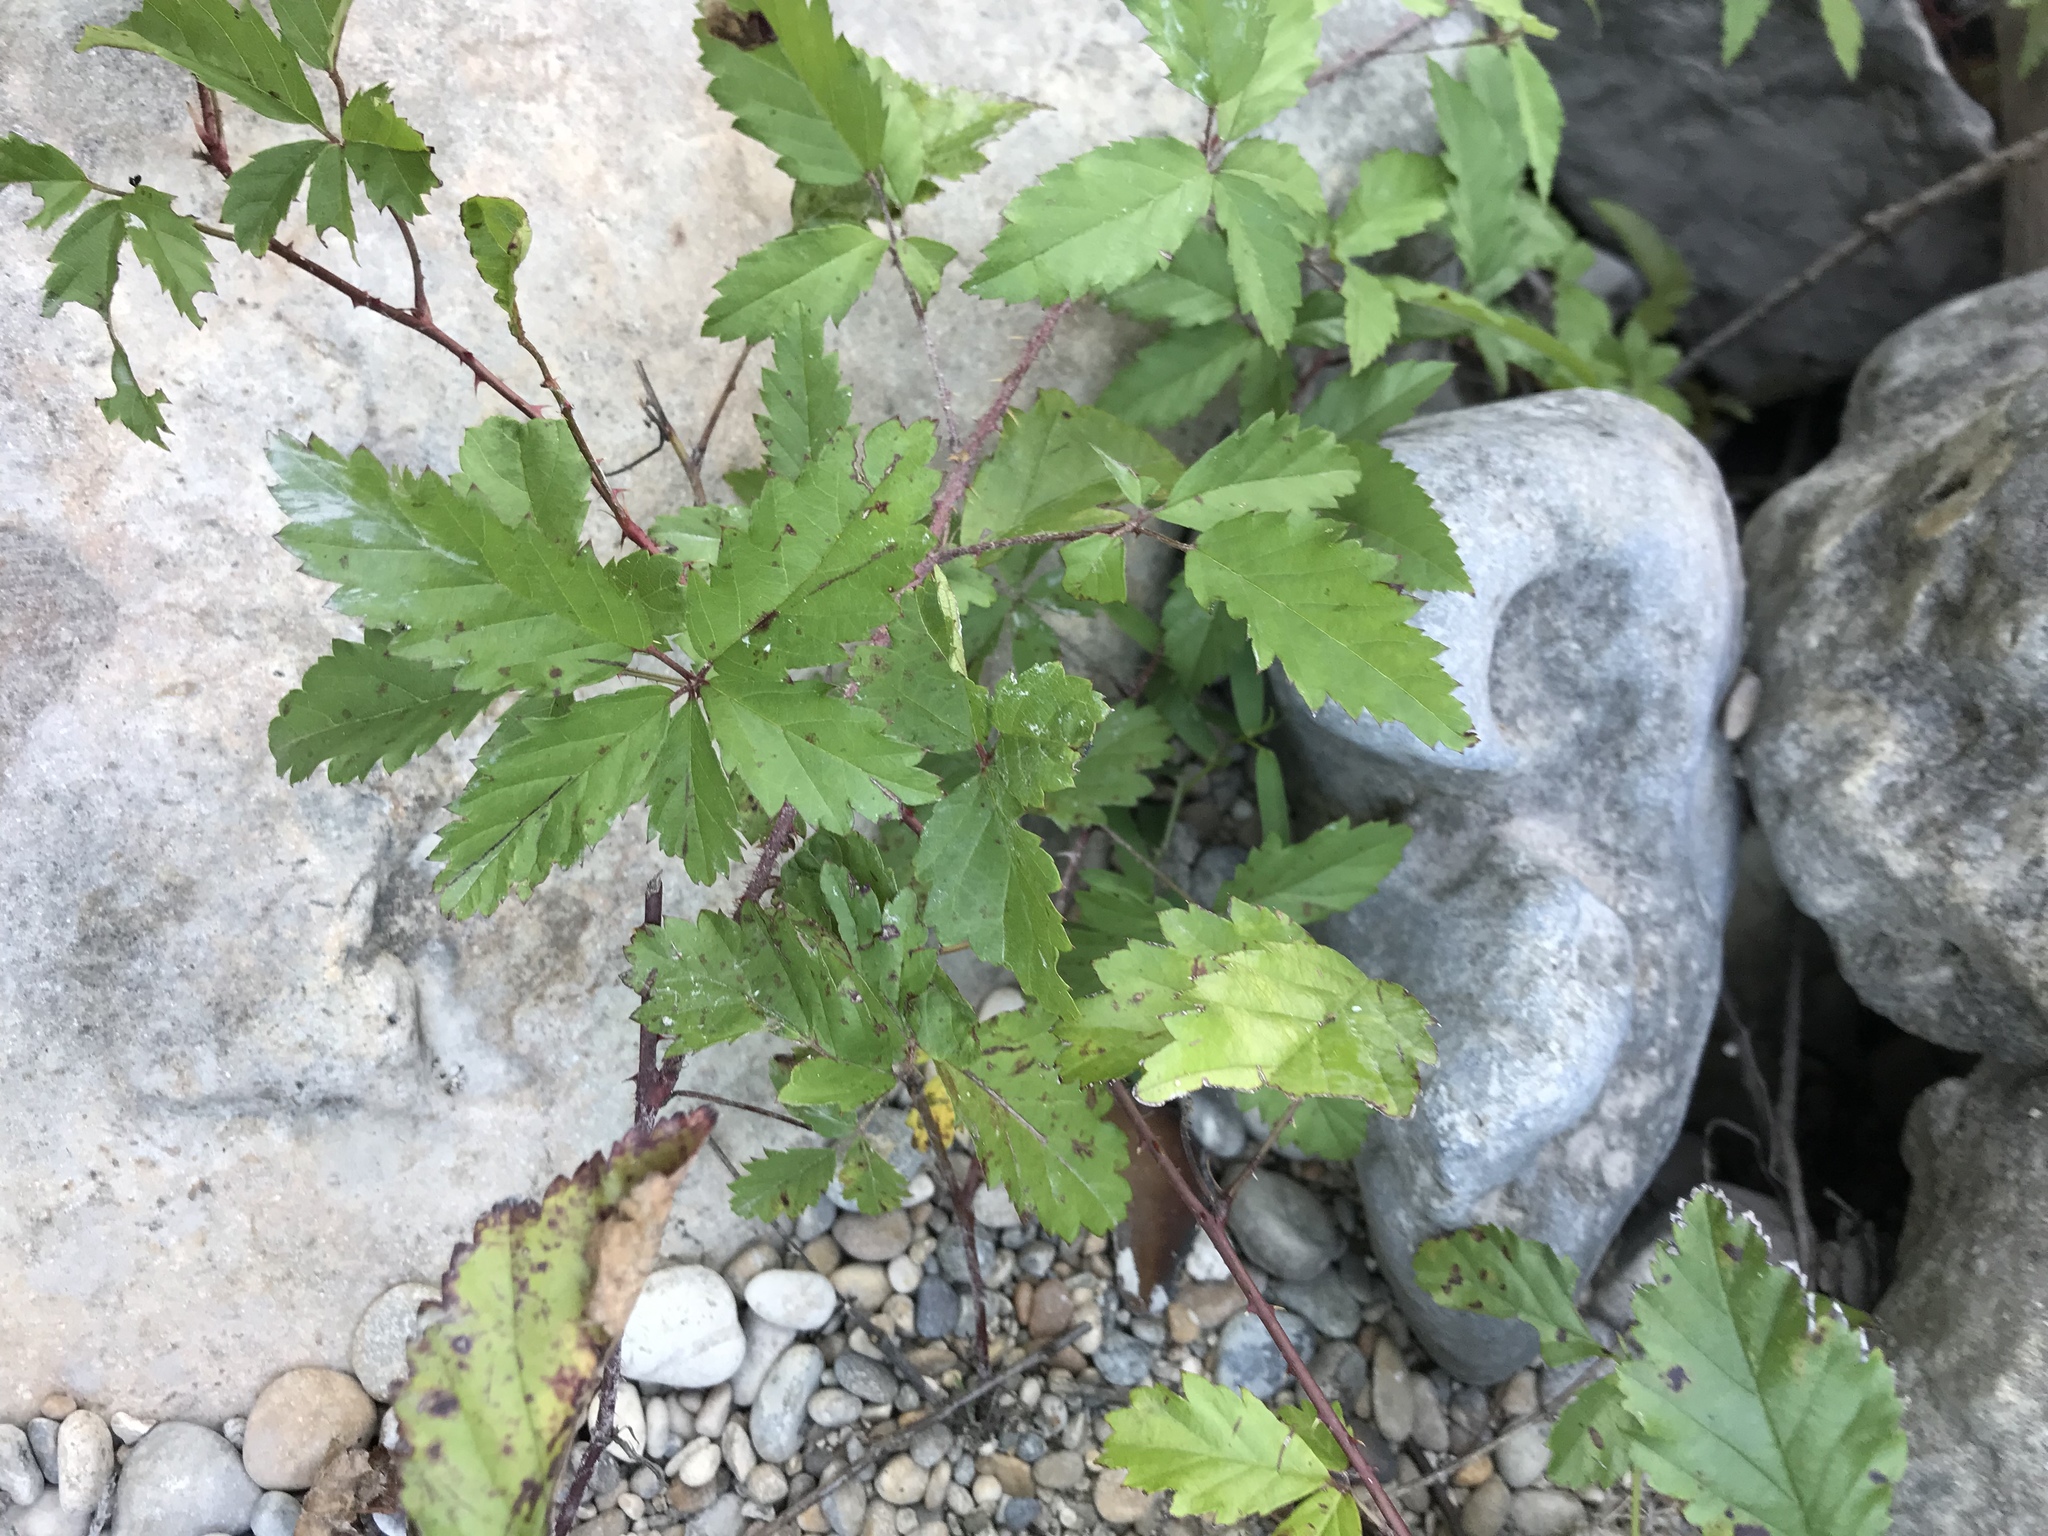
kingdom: Plantae
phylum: Tracheophyta
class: Magnoliopsida
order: Rosales
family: Rosaceae
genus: Rubus
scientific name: Rubus trivialis
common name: Southern dewberry
